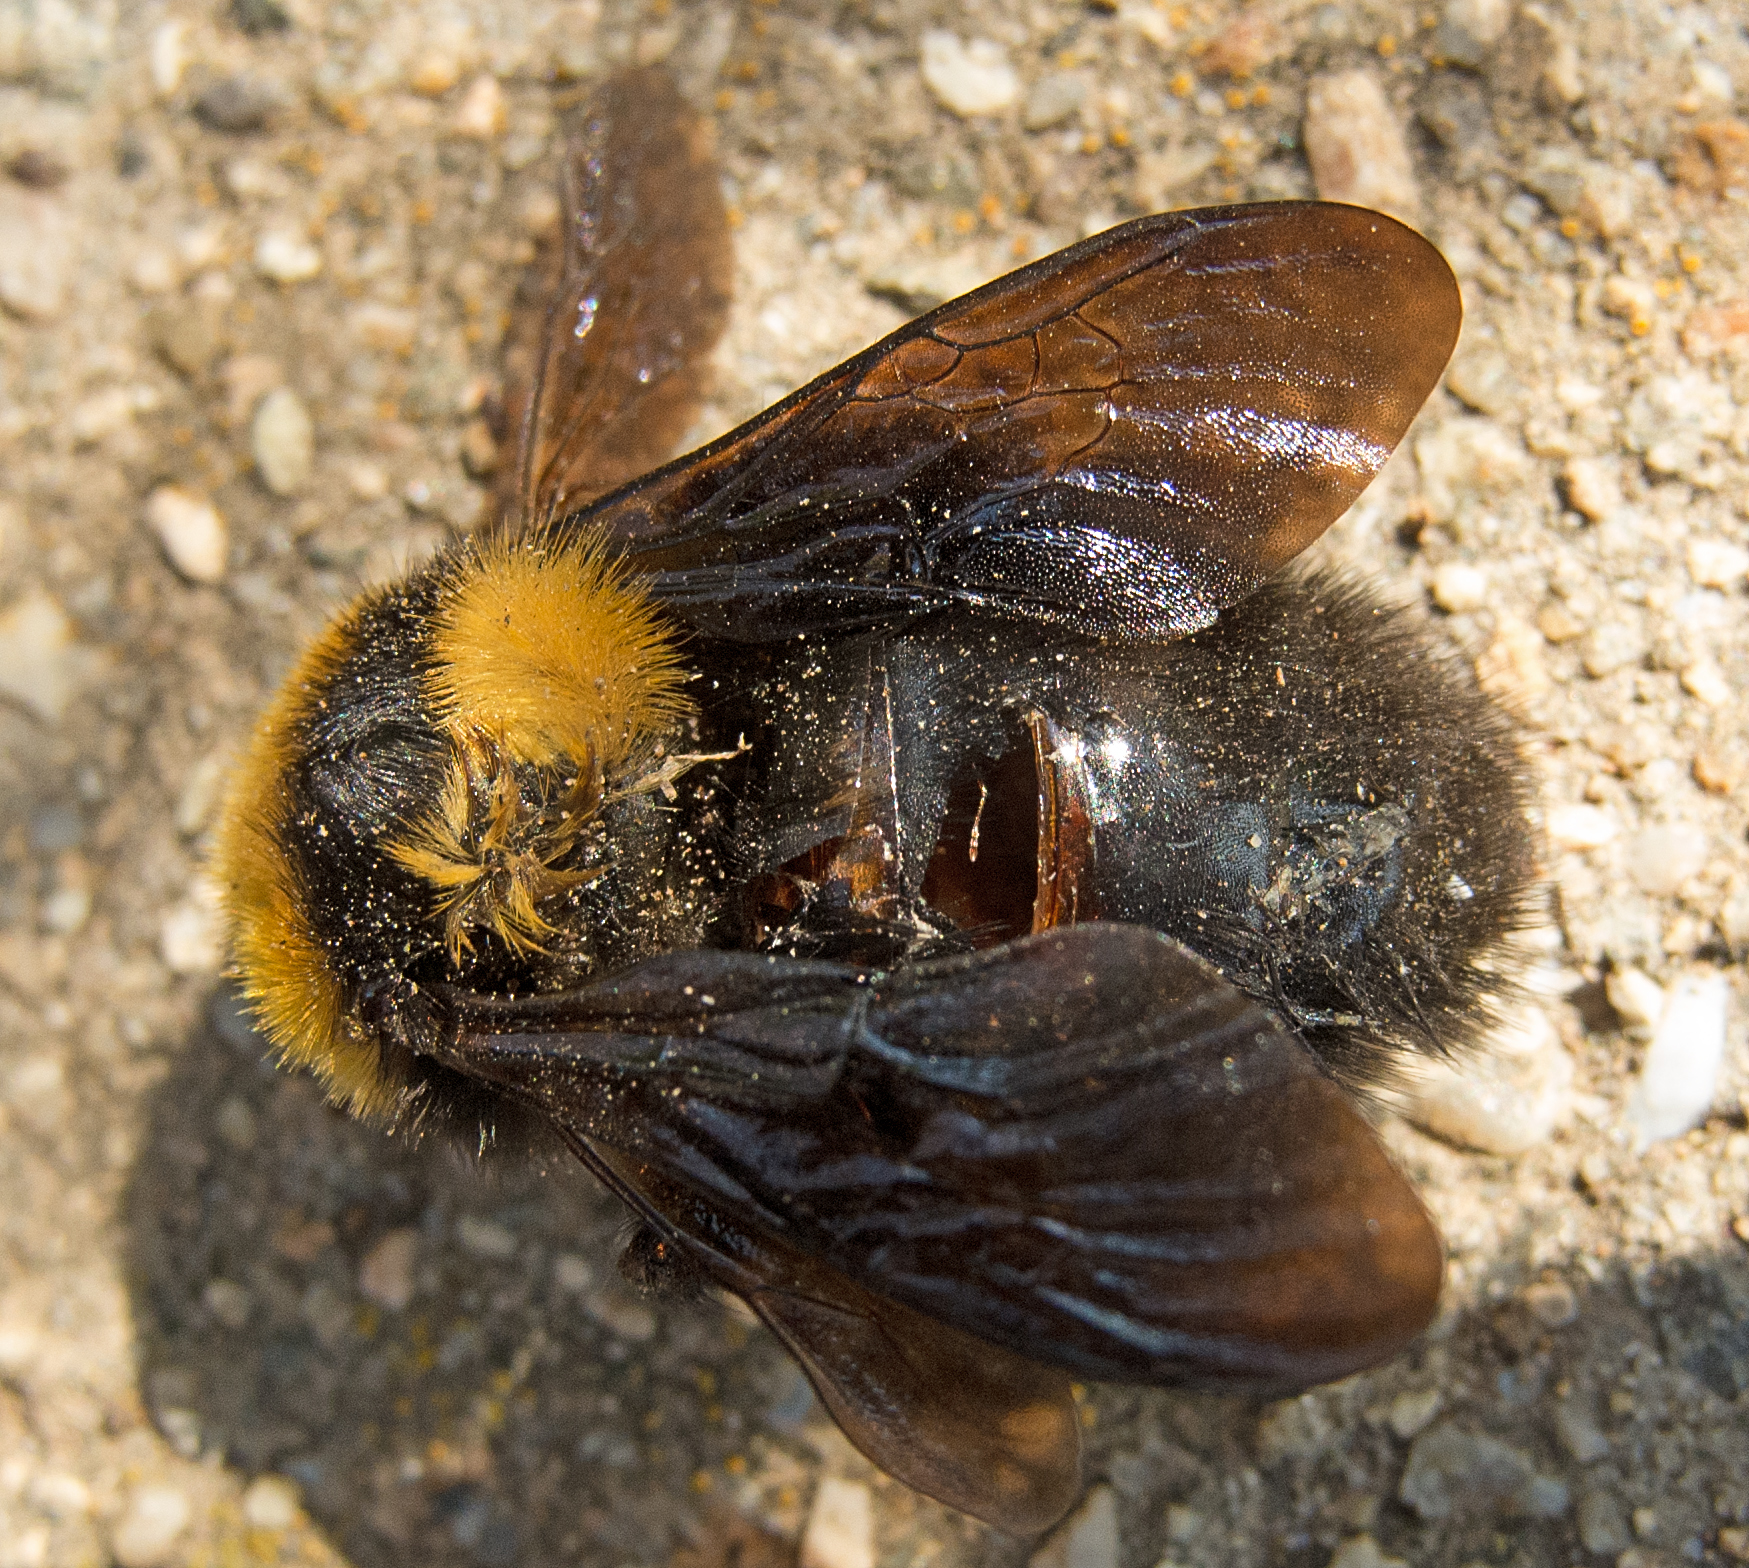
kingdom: Animalia
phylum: Arthropoda
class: Insecta
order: Hymenoptera
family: Apidae
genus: Bombus
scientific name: Bombus argillaceus
